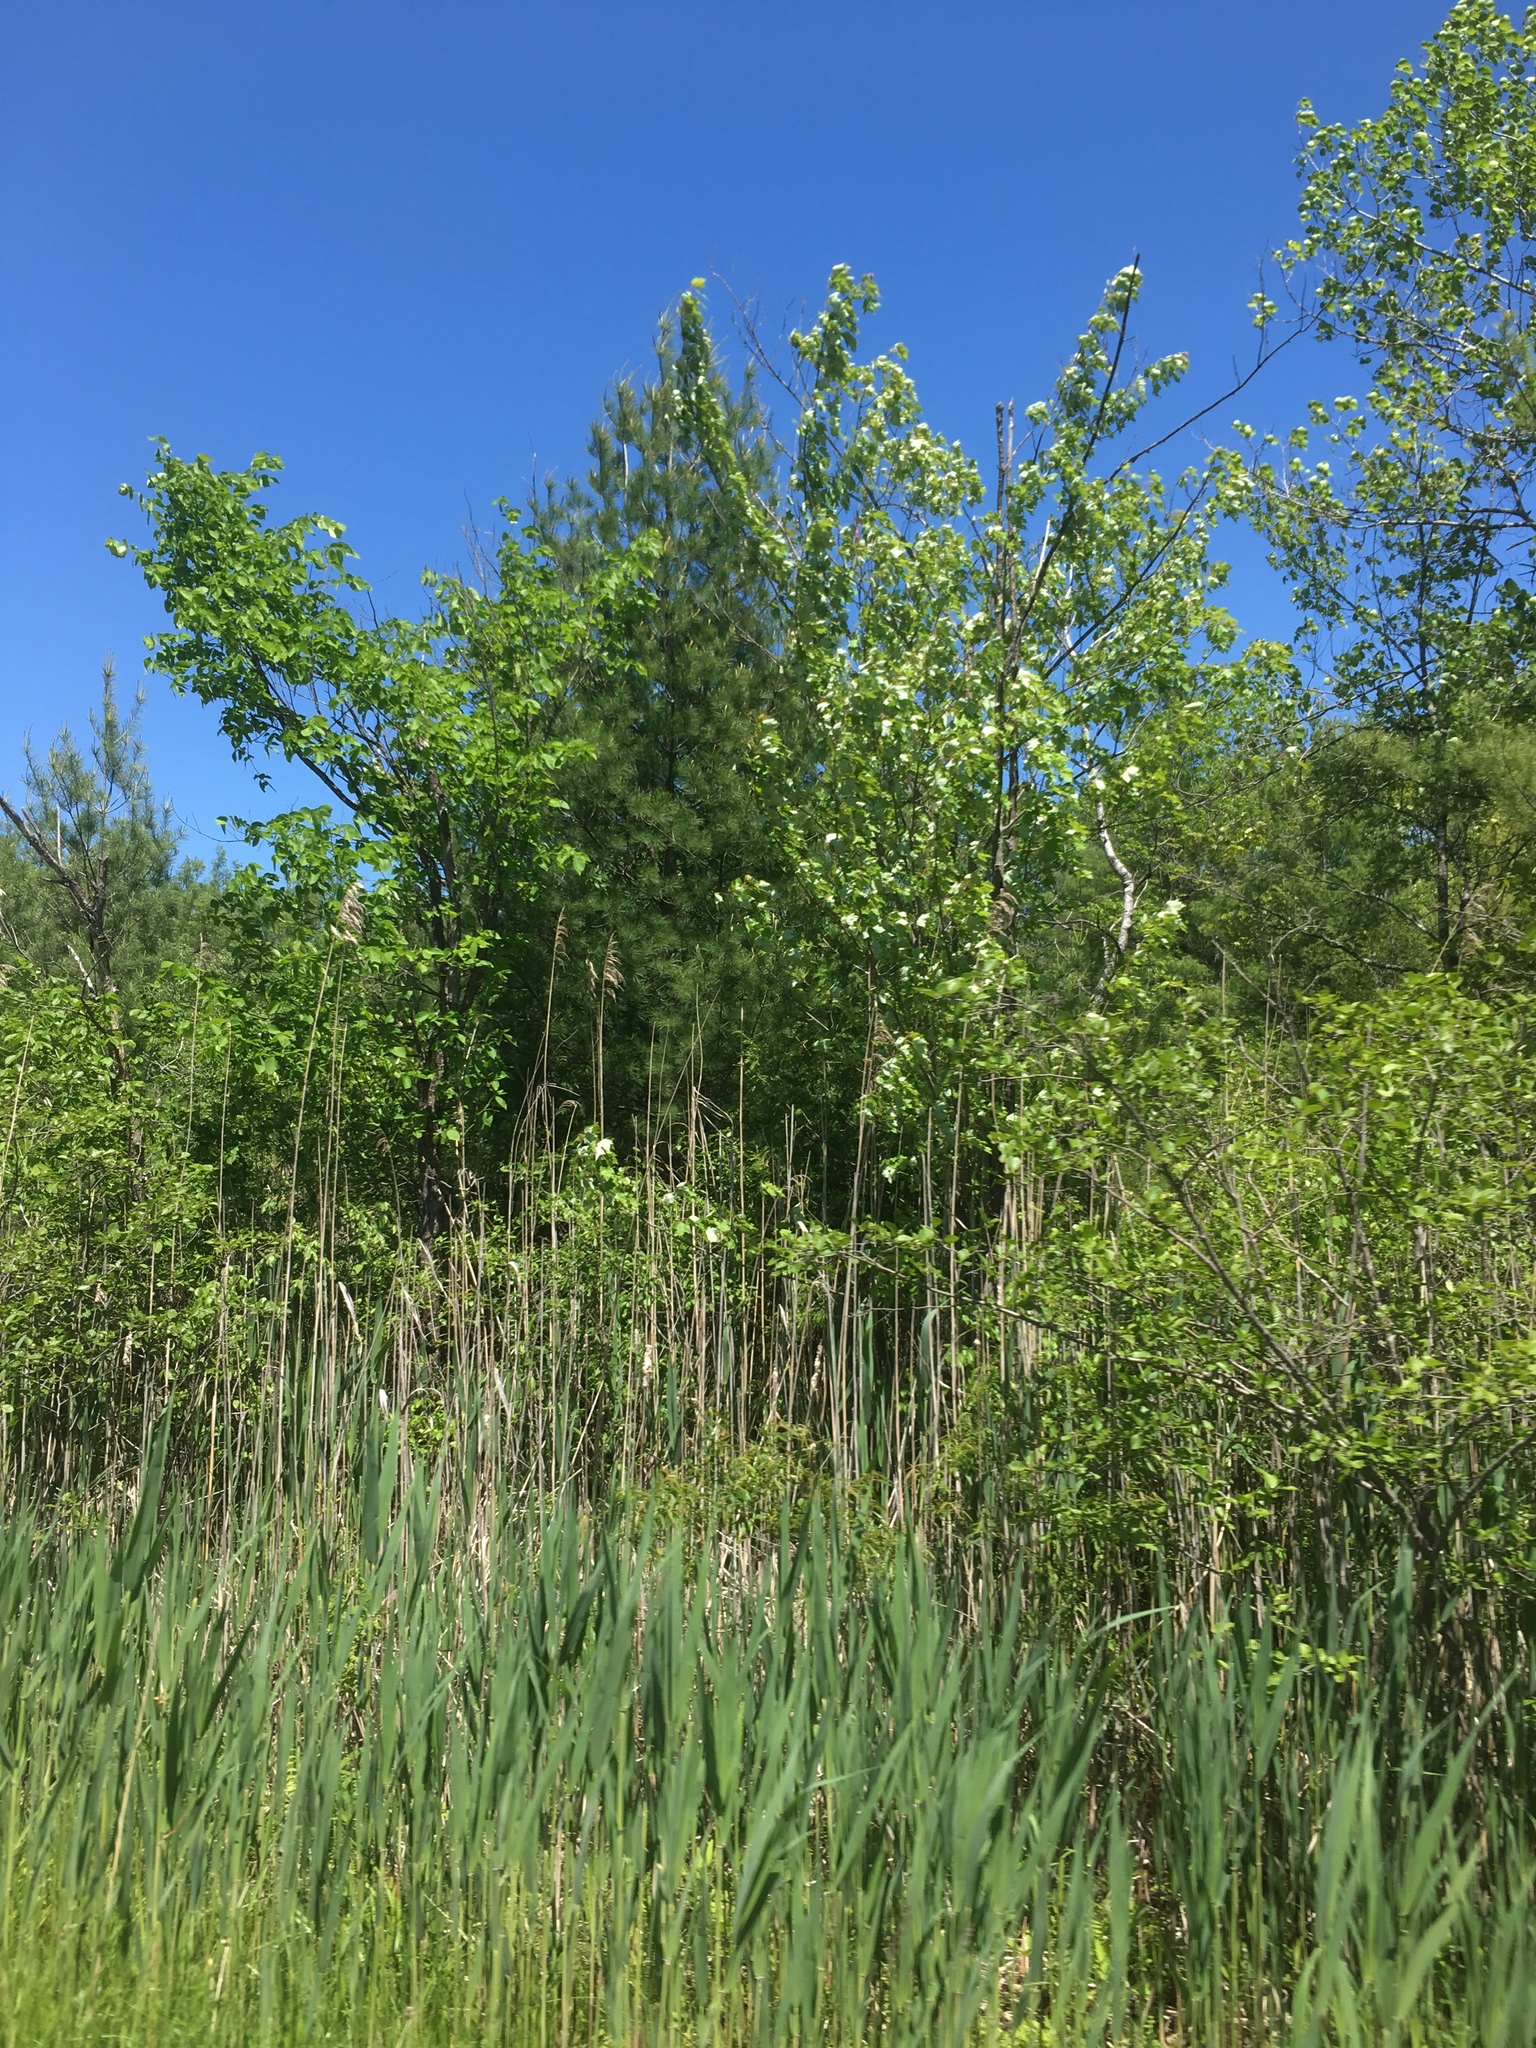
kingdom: Plantae
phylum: Tracheophyta
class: Magnoliopsida
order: Sapindales
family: Sapindaceae
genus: Acer
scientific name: Acer rubrum
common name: Red maple
